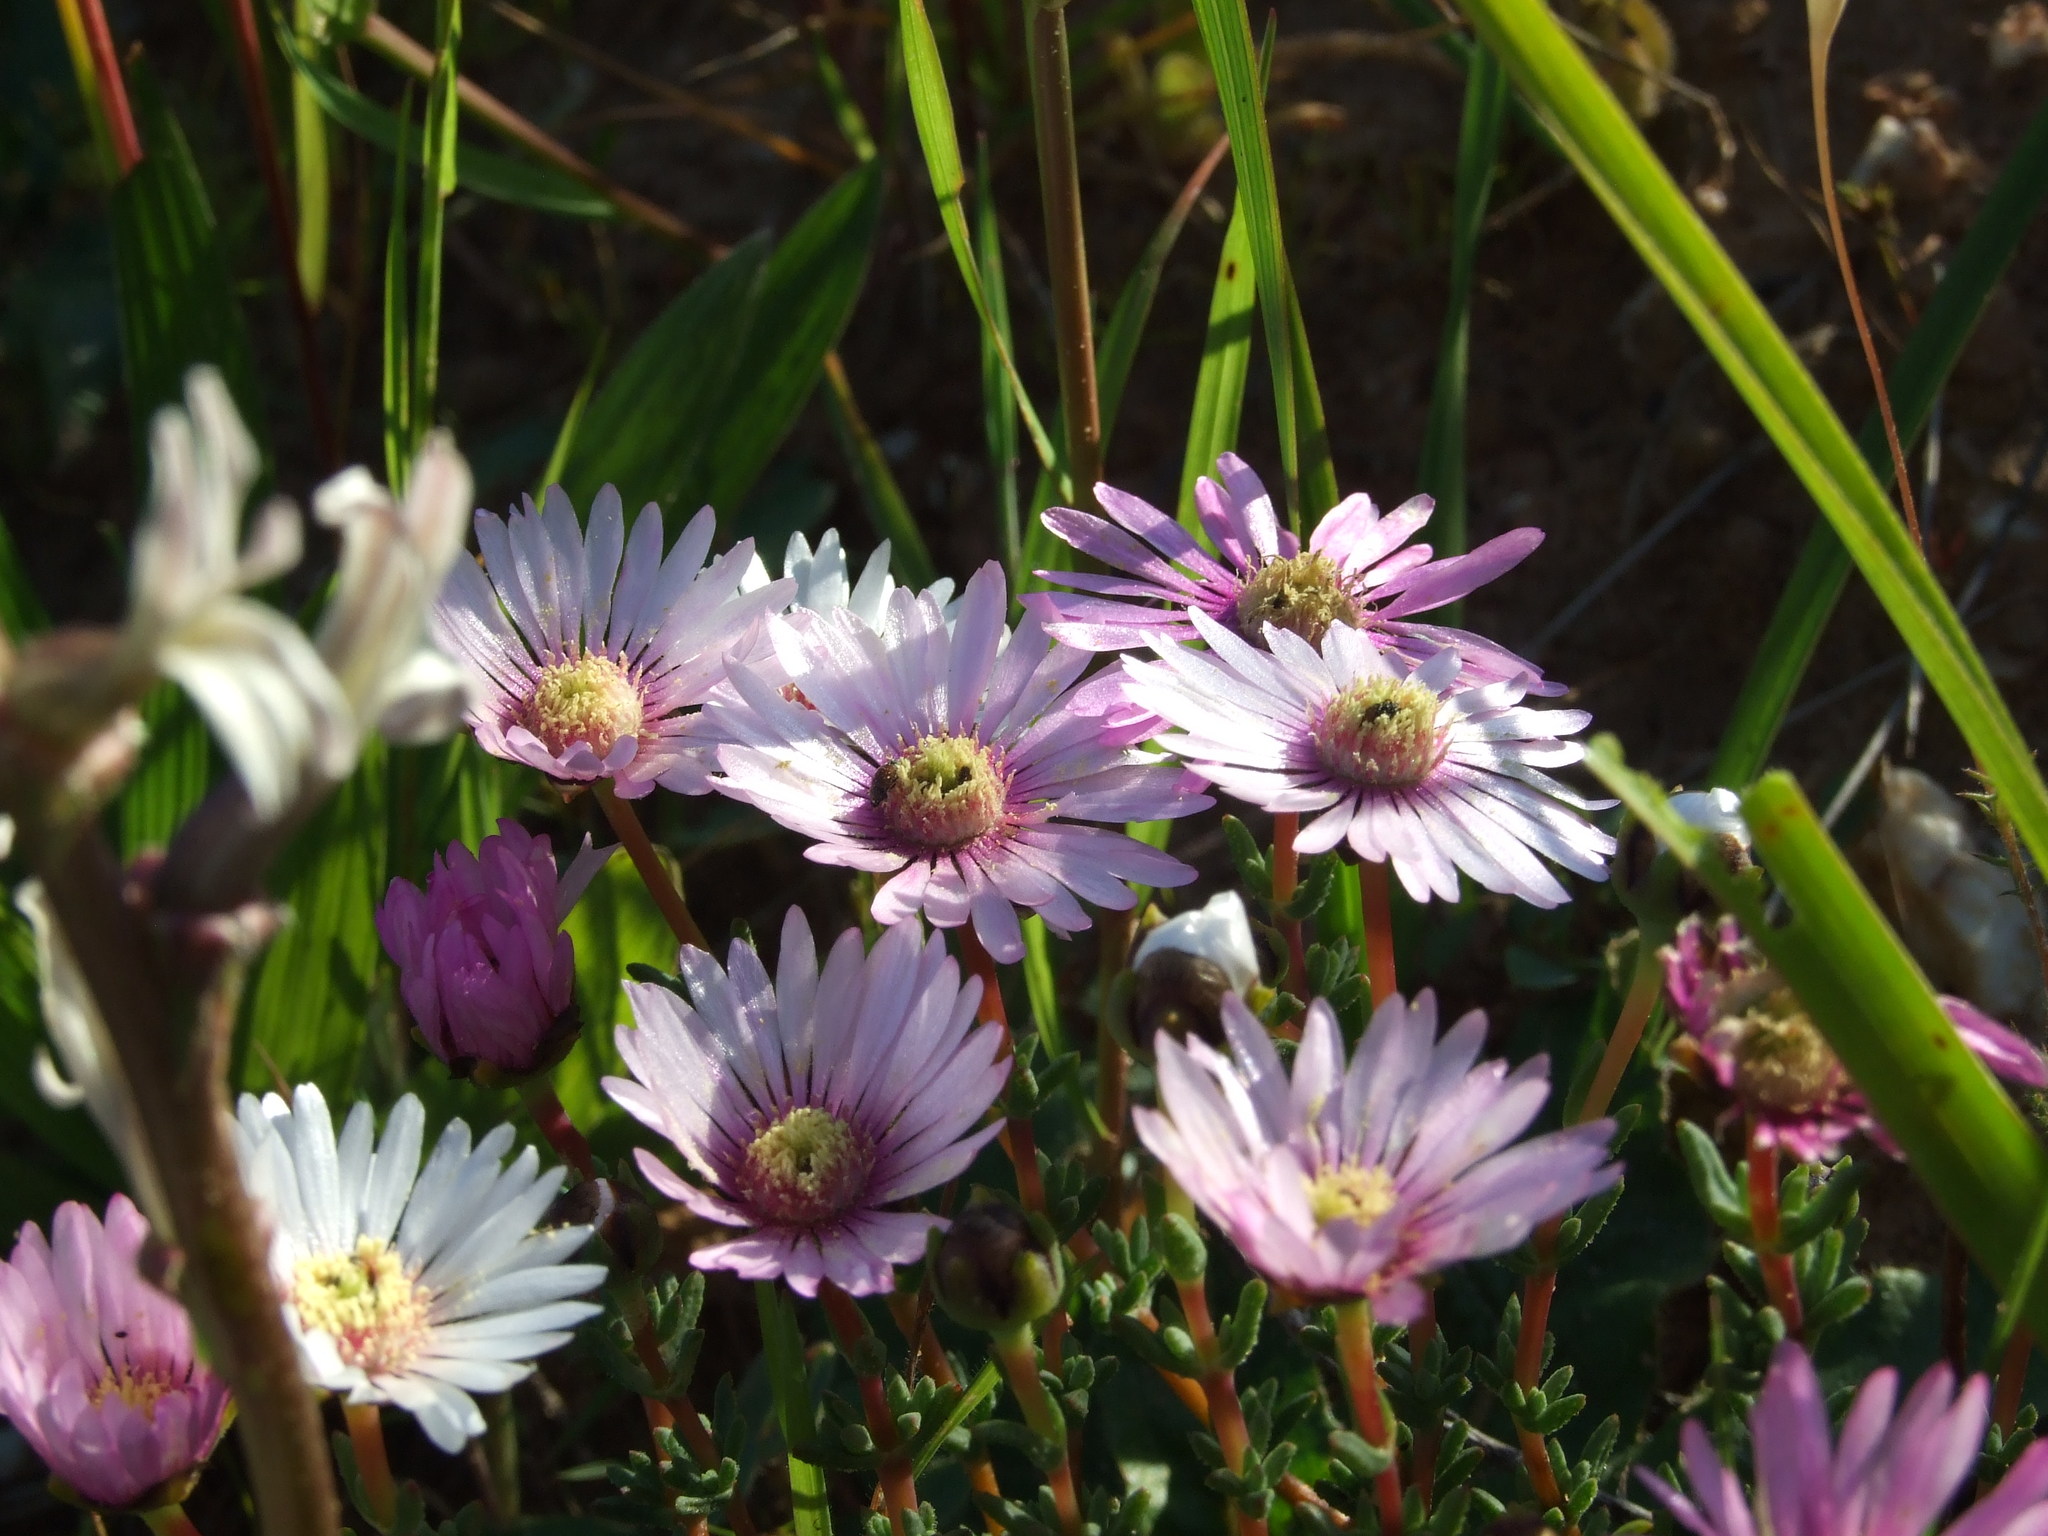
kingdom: Plantae
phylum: Tracheophyta
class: Magnoliopsida
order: Caryophyllales
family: Aizoaceae
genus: Lampranthus
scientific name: Lampranthus scaber
